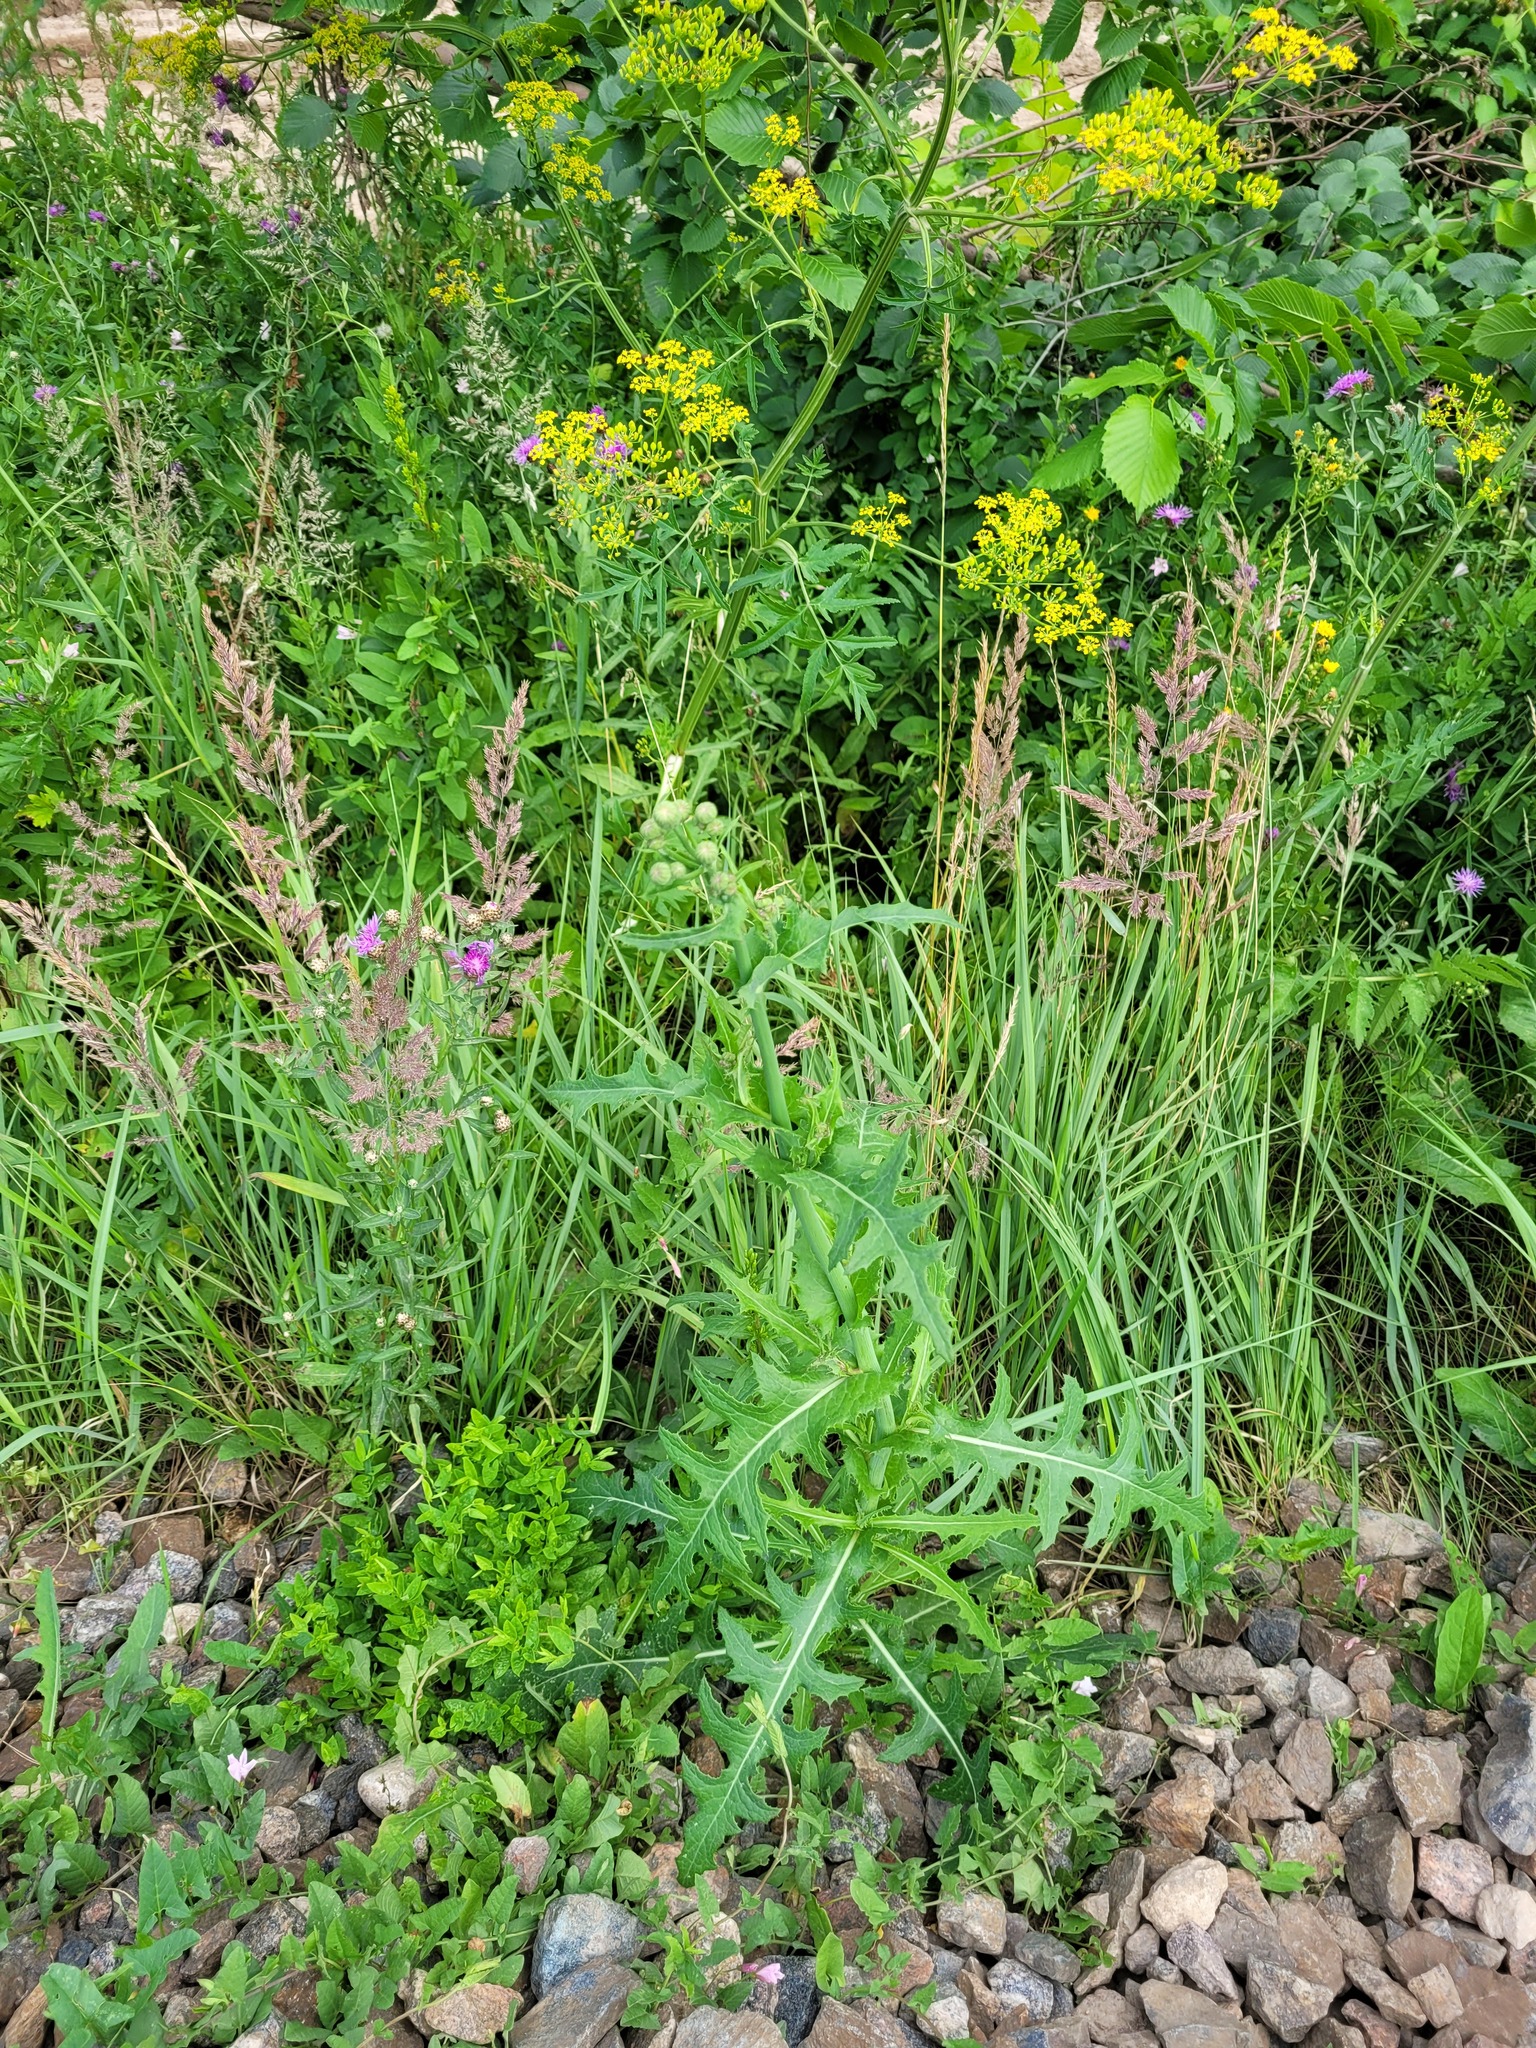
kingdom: Plantae
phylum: Tracheophyta
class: Magnoliopsida
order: Asterales
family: Asteraceae
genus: Sonchus
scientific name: Sonchus arvensis
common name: Perennial sow-thistle
